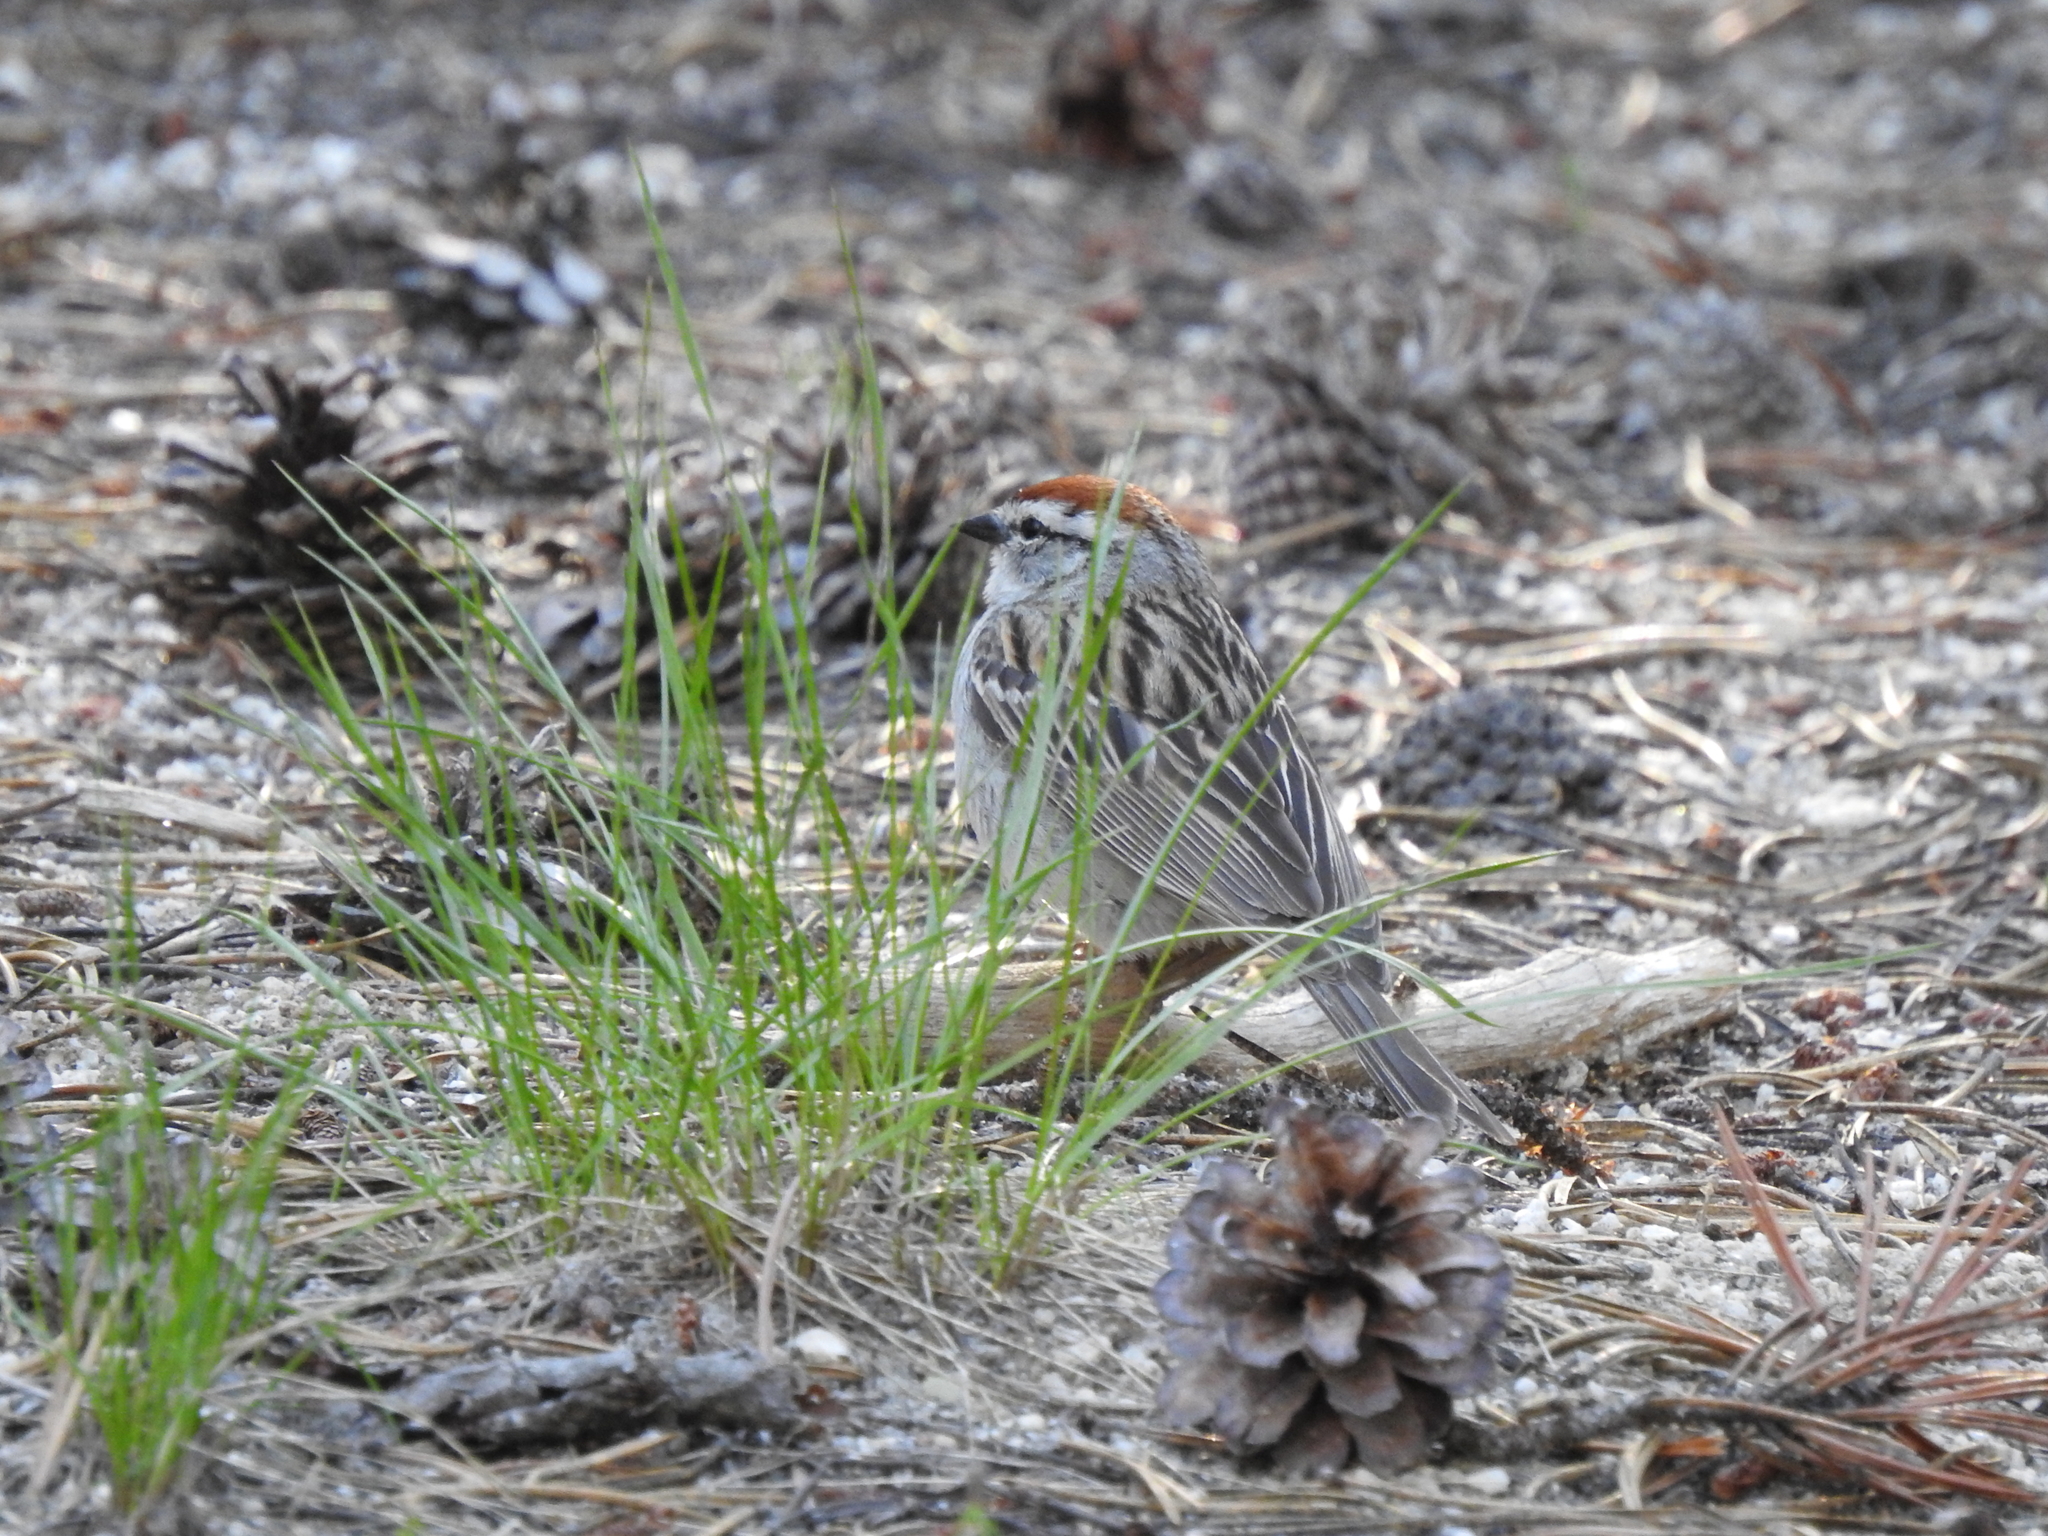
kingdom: Animalia
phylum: Chordata
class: Aves
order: Passeriformes
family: Passerellidae
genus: Spizella
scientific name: Spizella passerina
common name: Chipping sparrow
